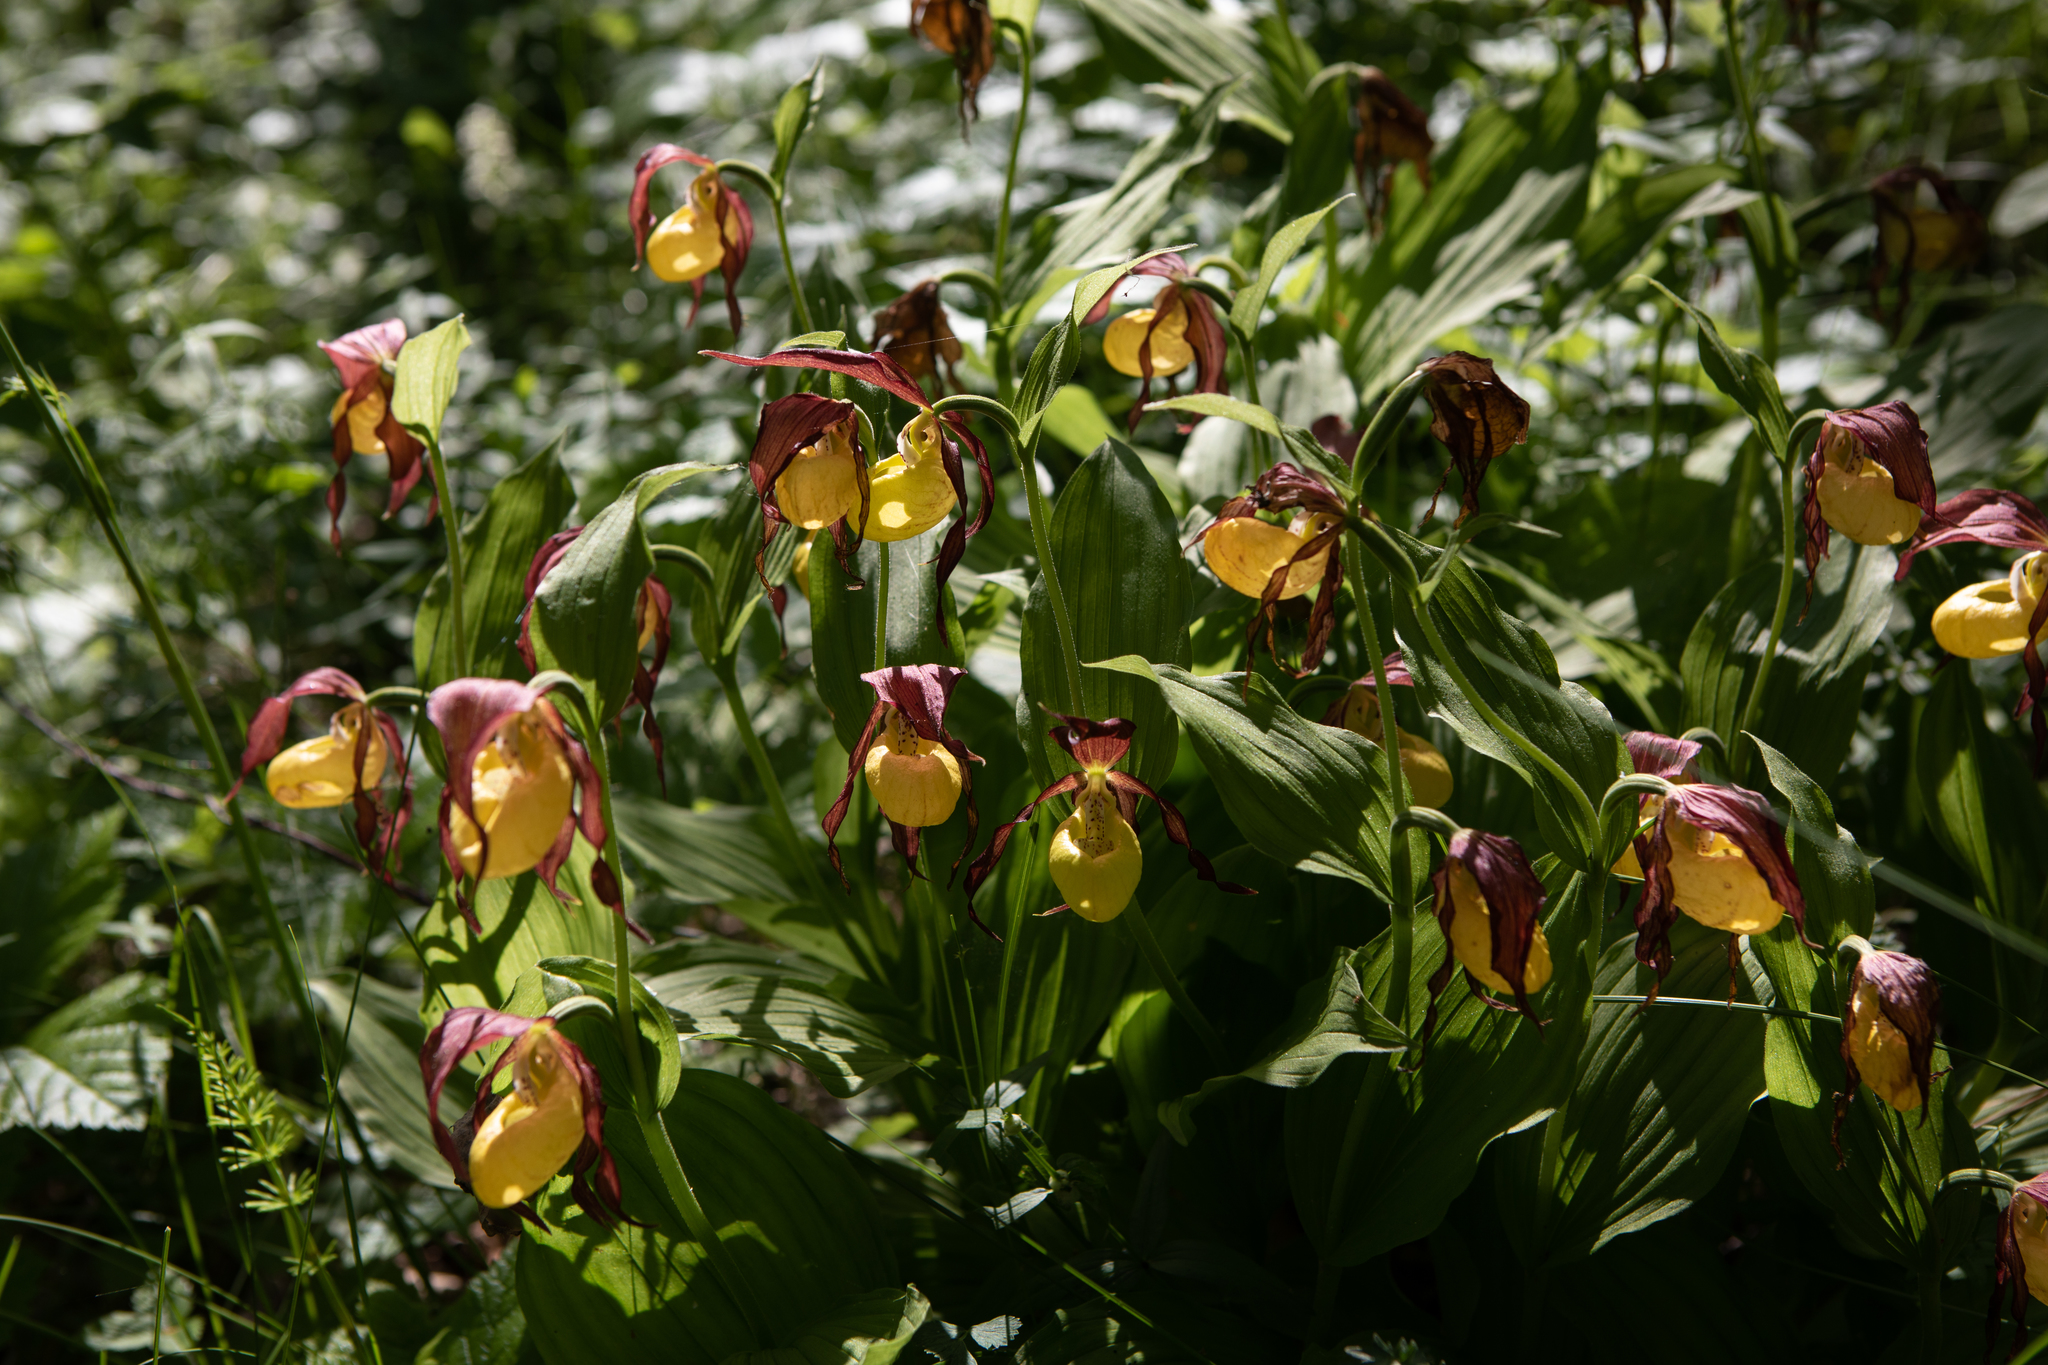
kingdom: Plantae
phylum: Tracheophyta
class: Liliopsida
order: Asparagales
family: Orchidaceae
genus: Cypripedium
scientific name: Cypripedium calceolus
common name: Lady's-slipper
